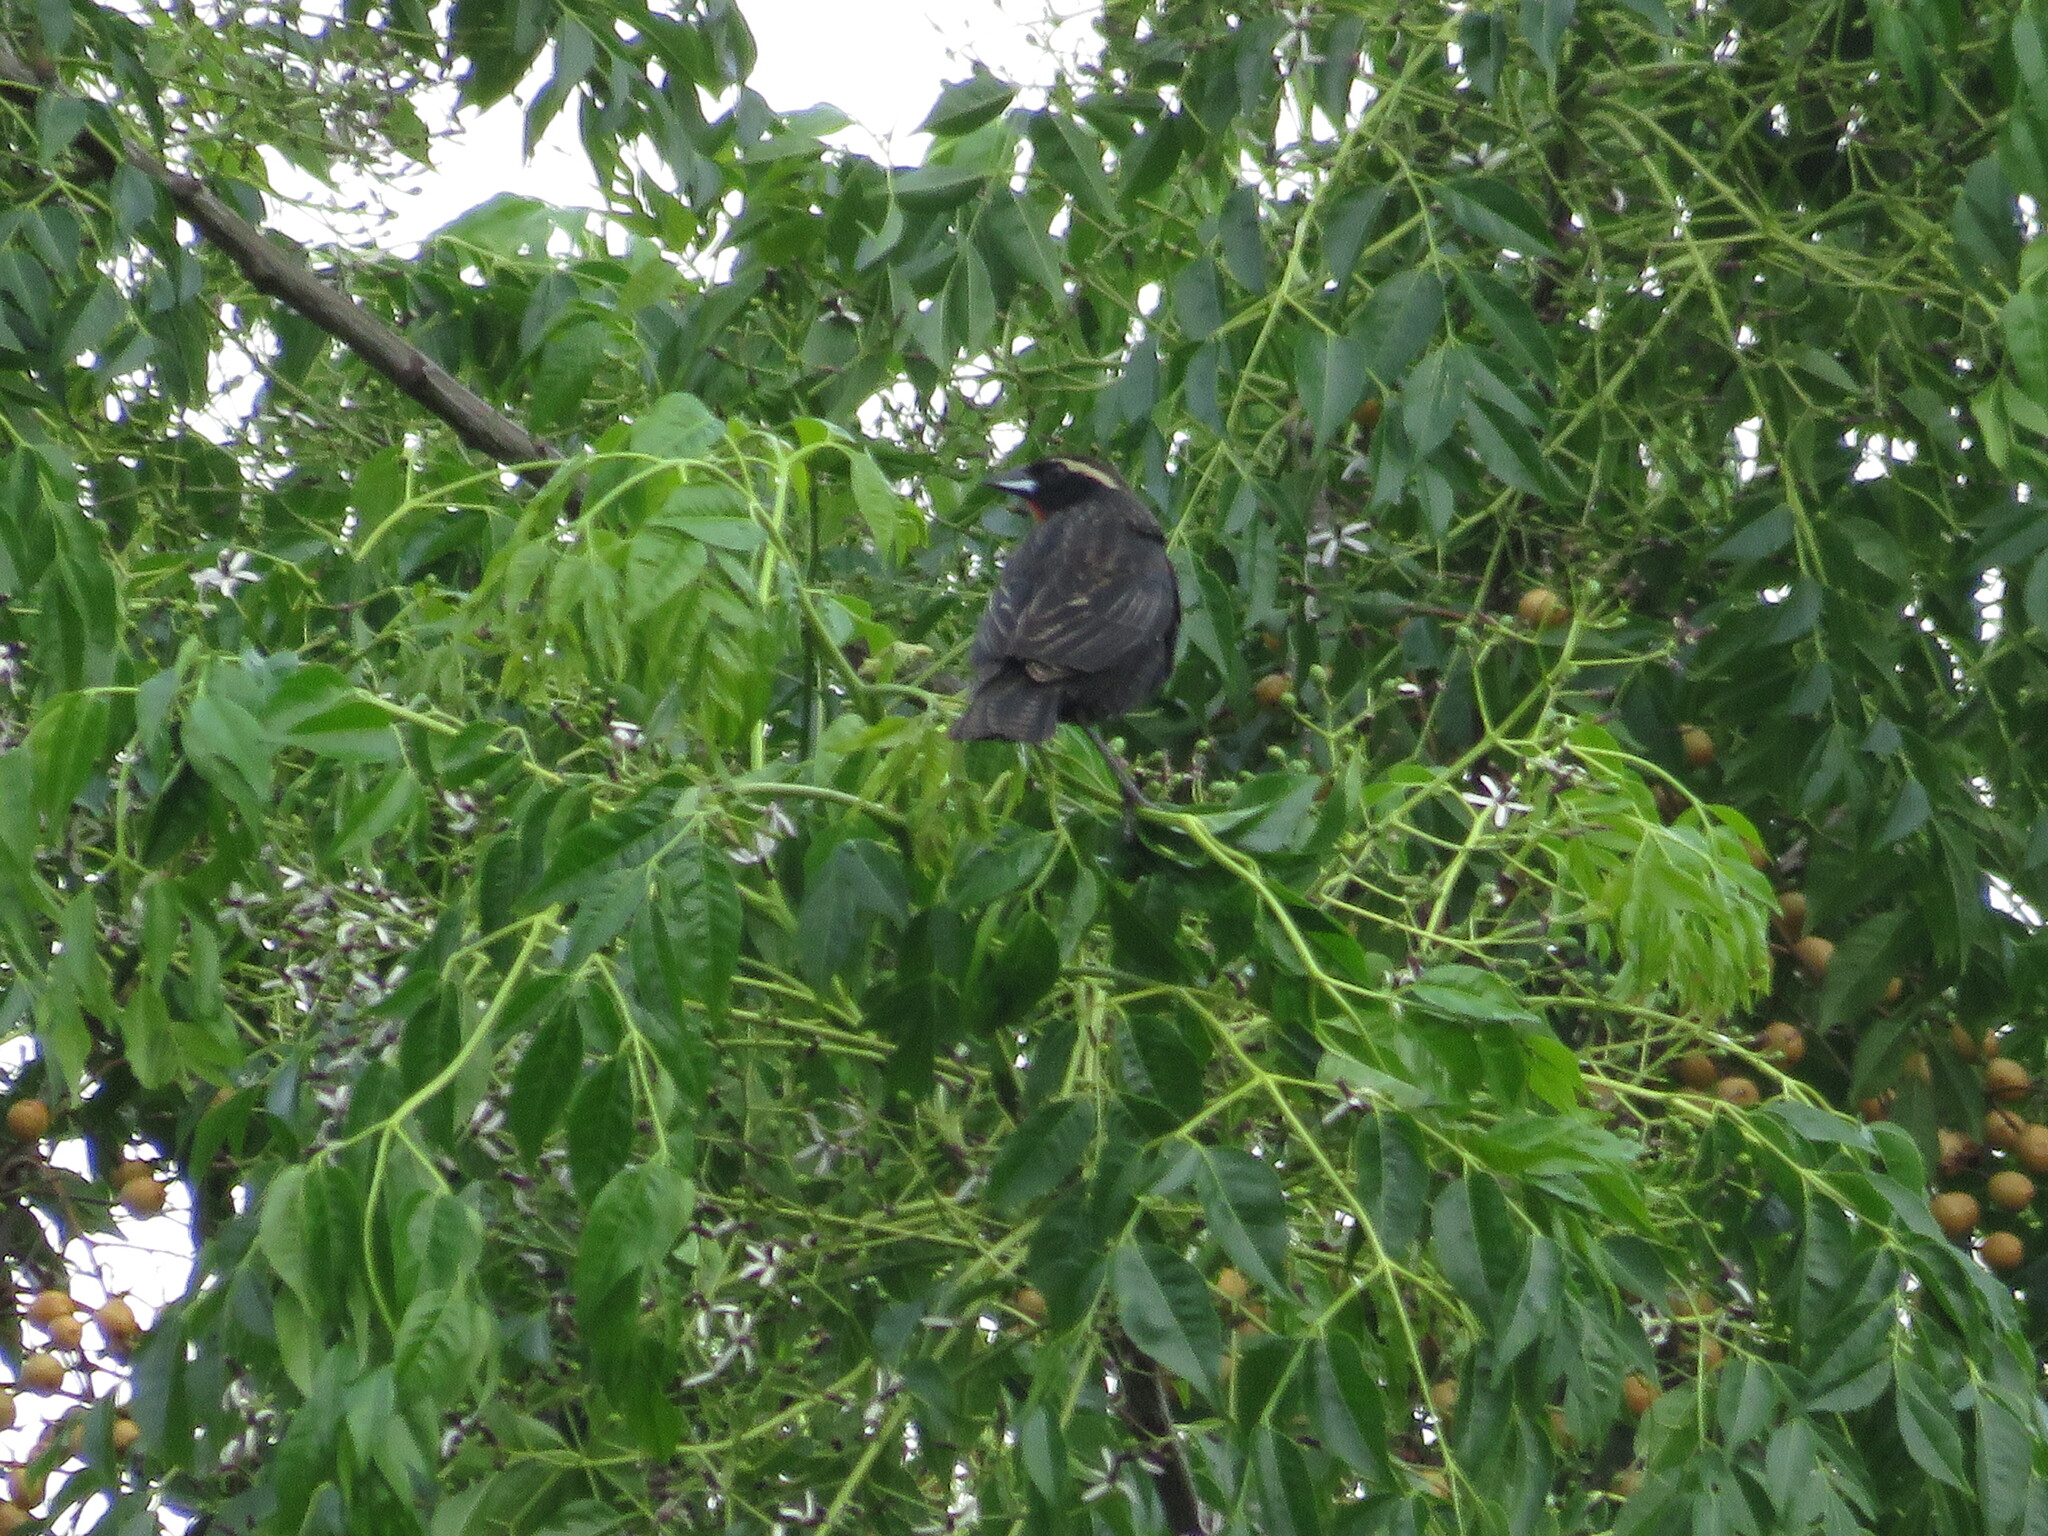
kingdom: Animalia
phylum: Chordata
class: Aves
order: Passeriformes
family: Icteridae
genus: Sturnella
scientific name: Sturnella superciliaris
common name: White-browed blackbird
